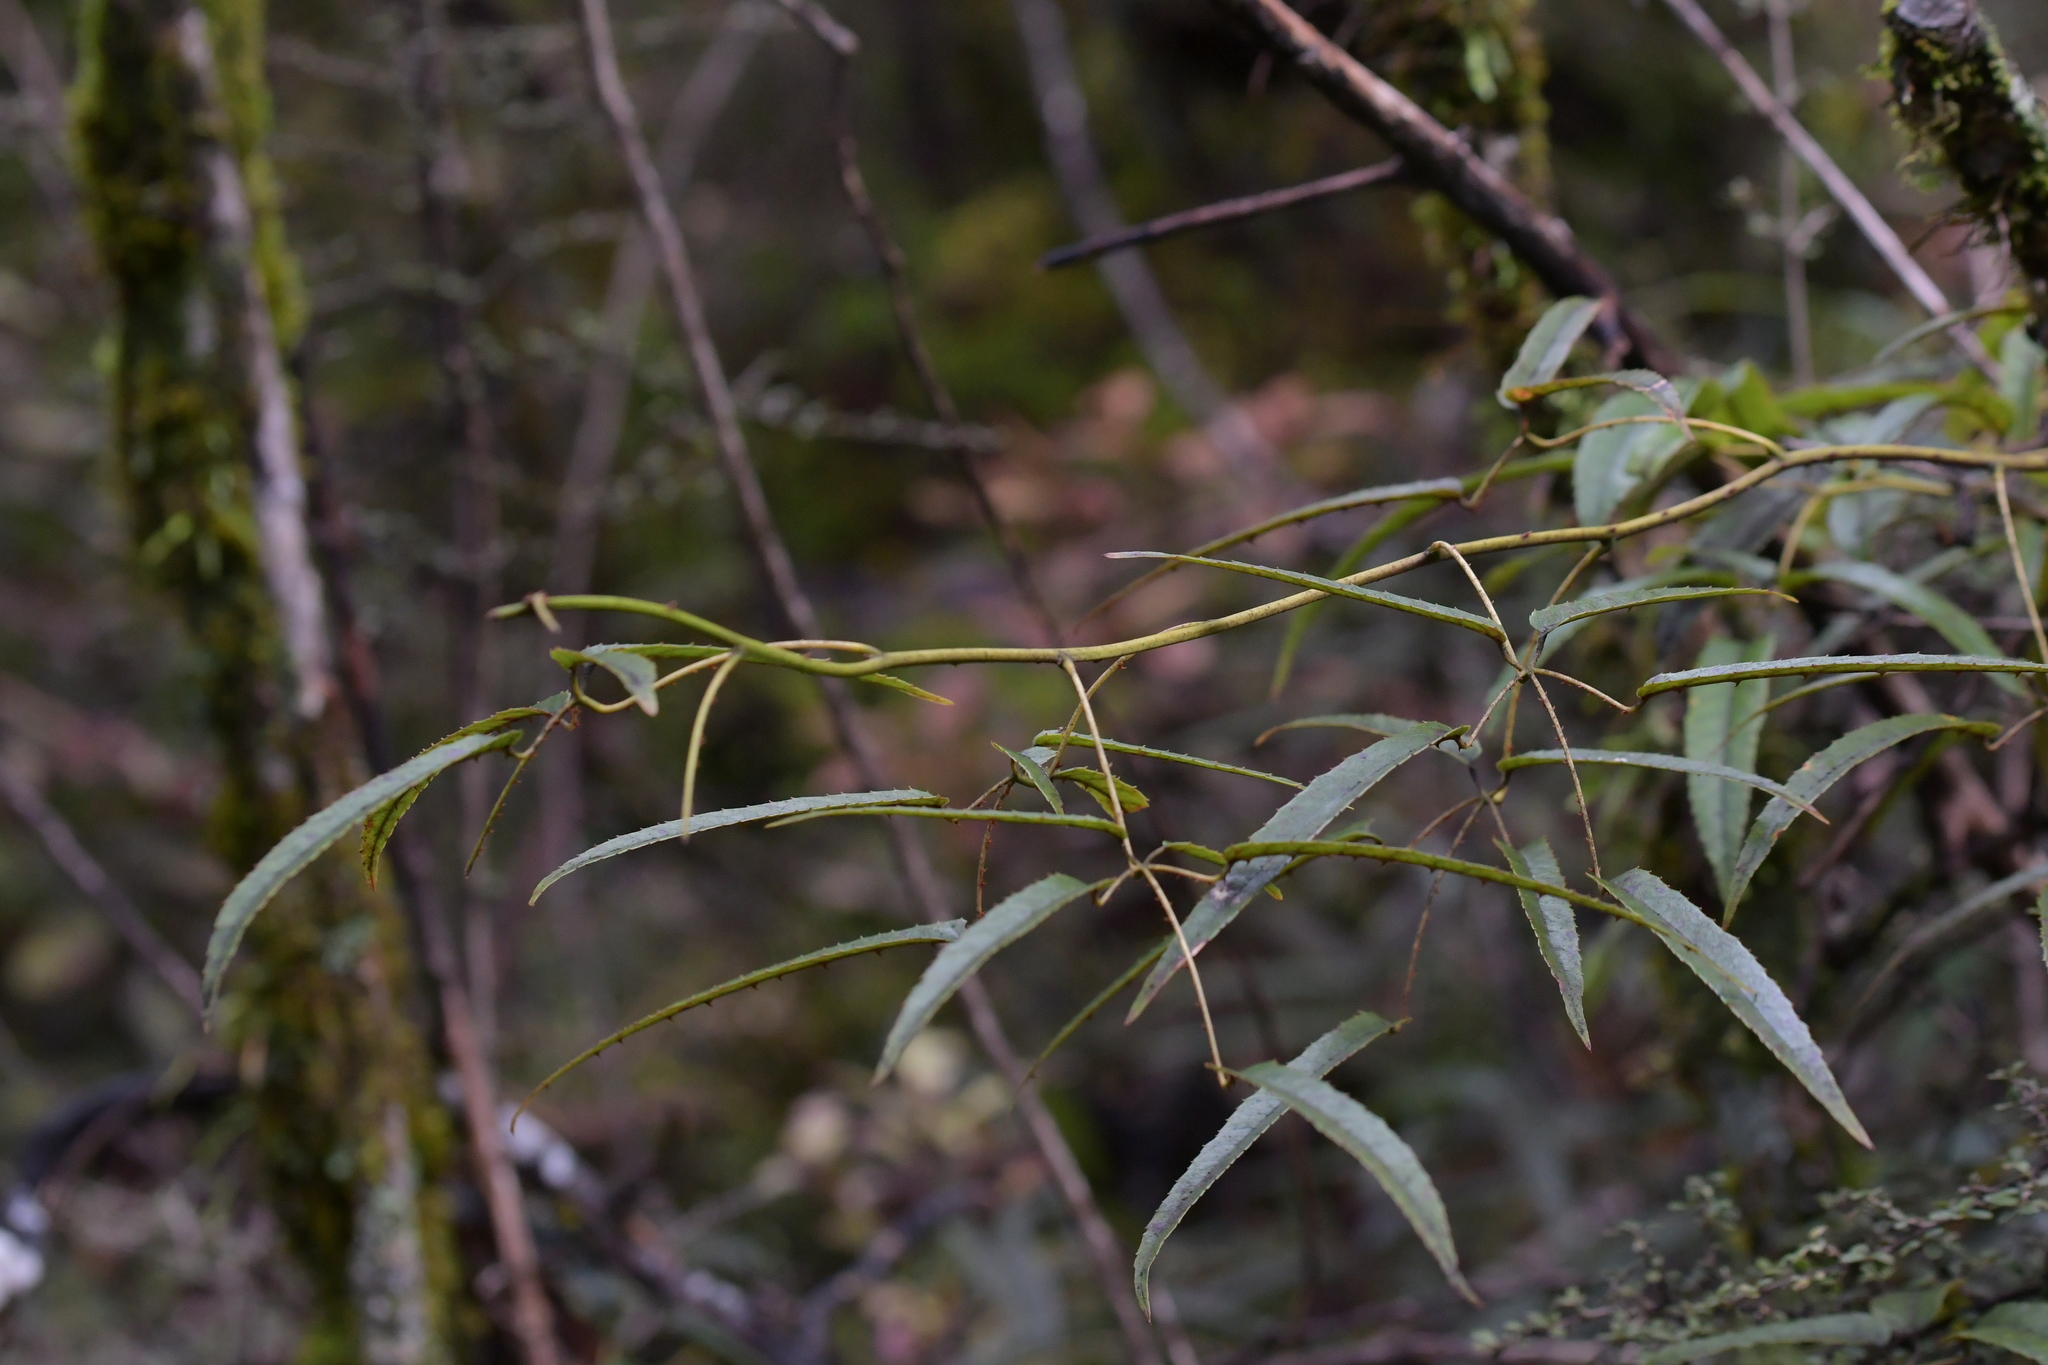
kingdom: Plantae
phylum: Tracheophyta
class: Magnoliopsida
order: Rosales
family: Rosaceae
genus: Rubus
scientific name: Rubus schmidelioides
